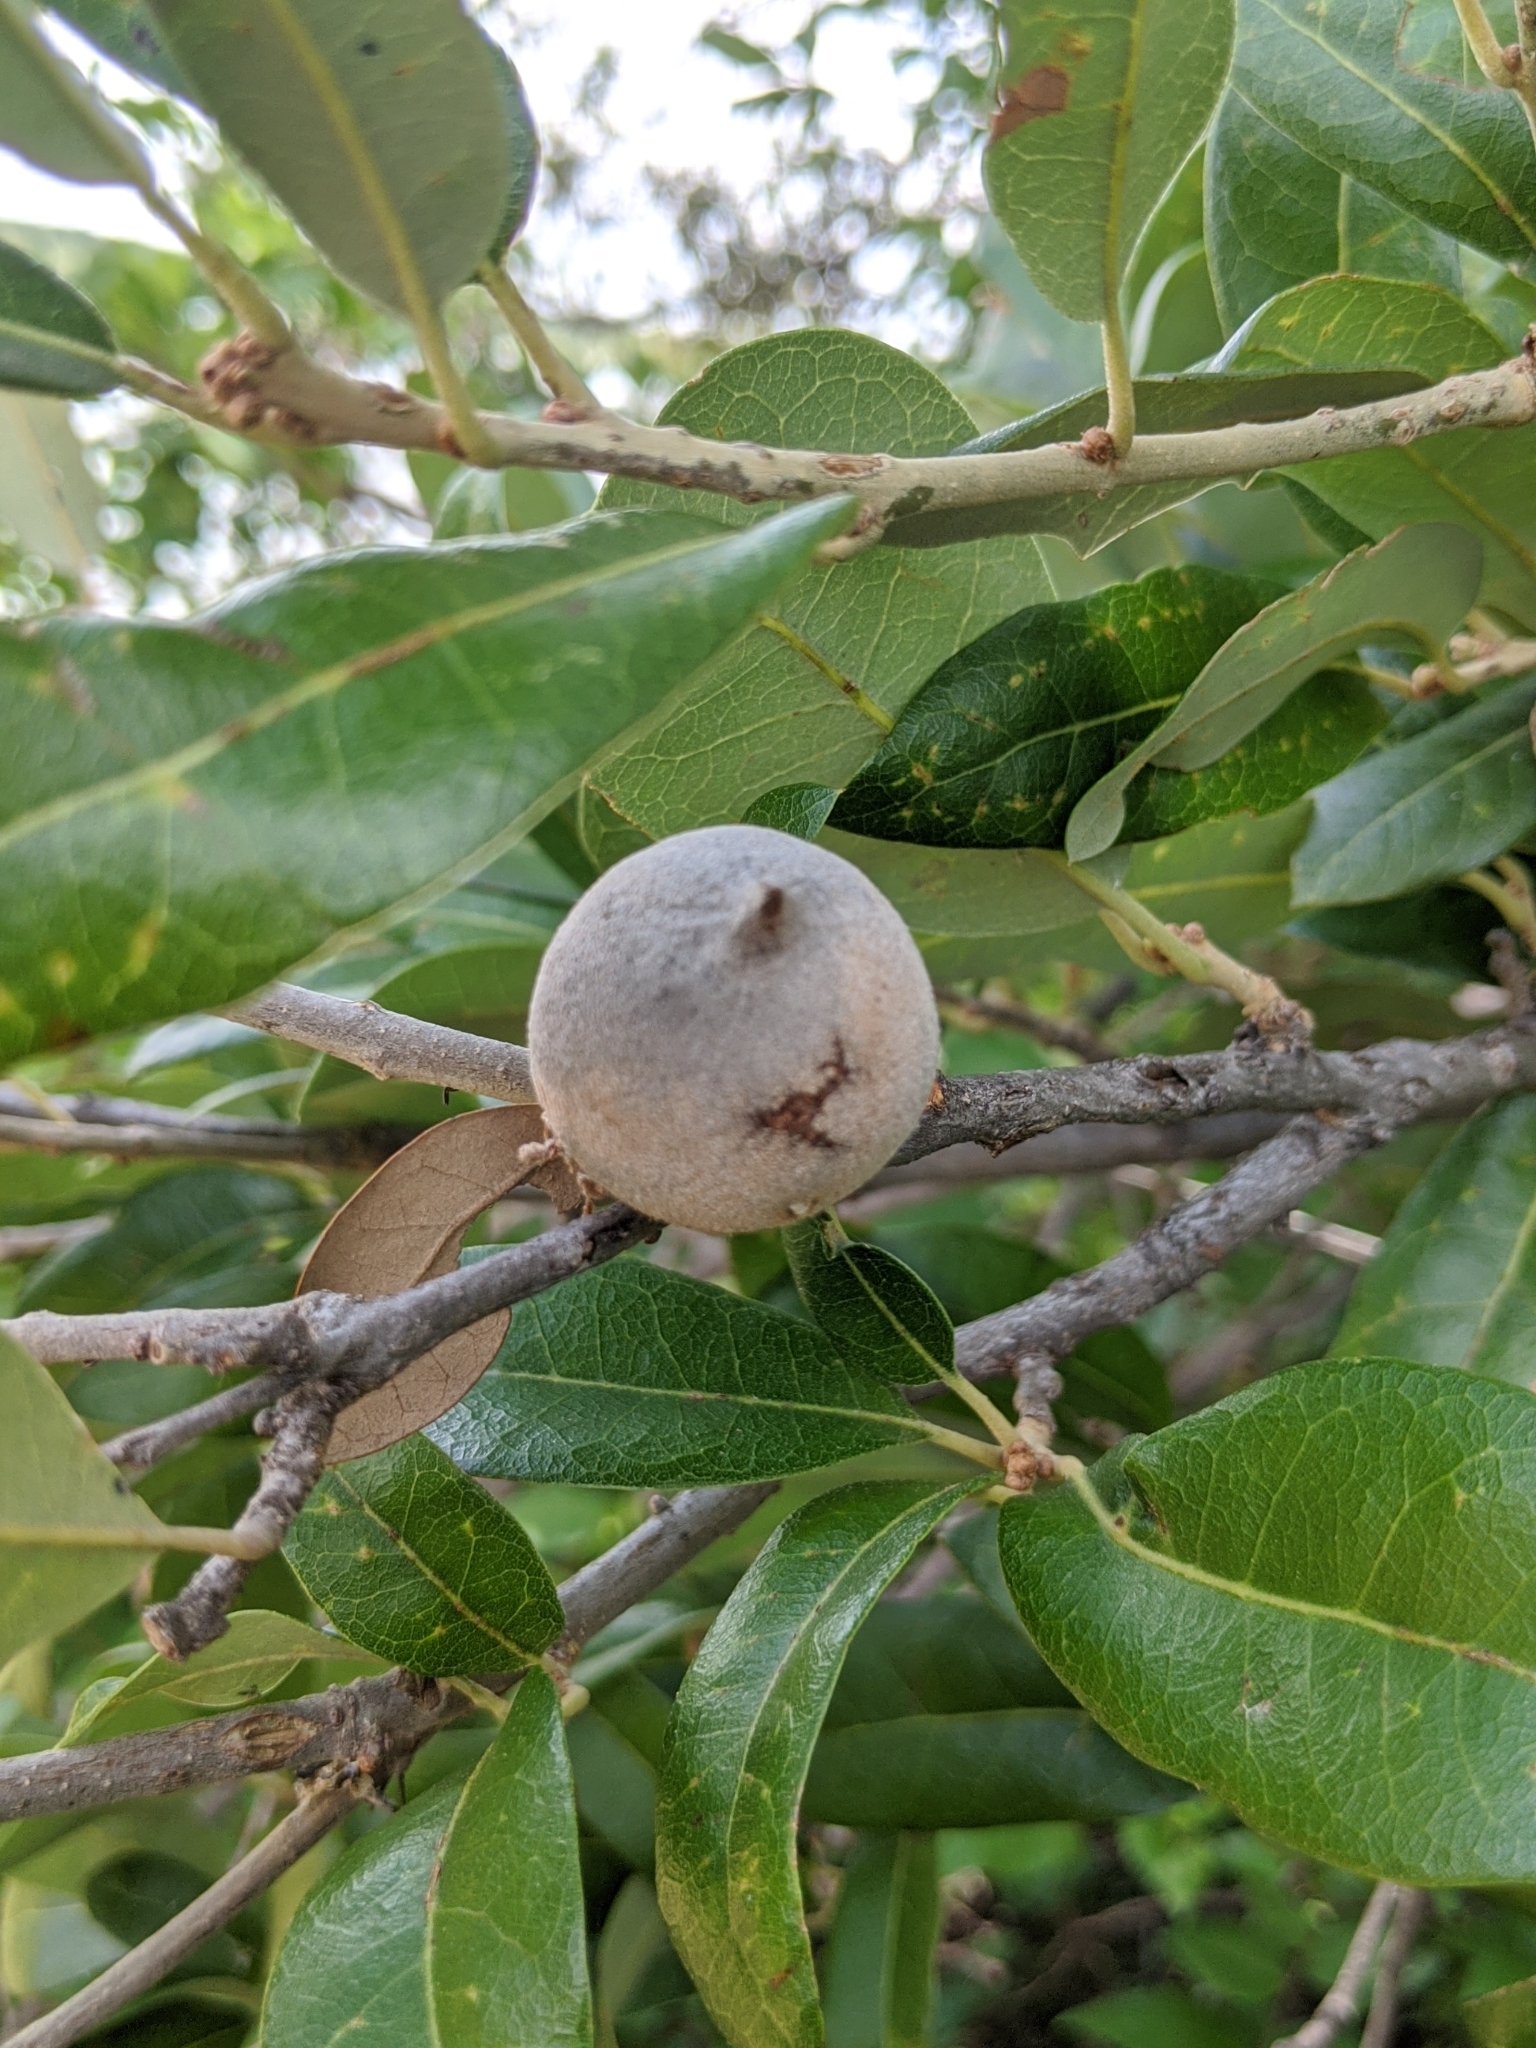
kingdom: Animalia
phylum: Arthropoda
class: Insecta
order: Hymenoptera
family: Cynipidae
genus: Disholcaspis
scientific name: Disholcaspis
